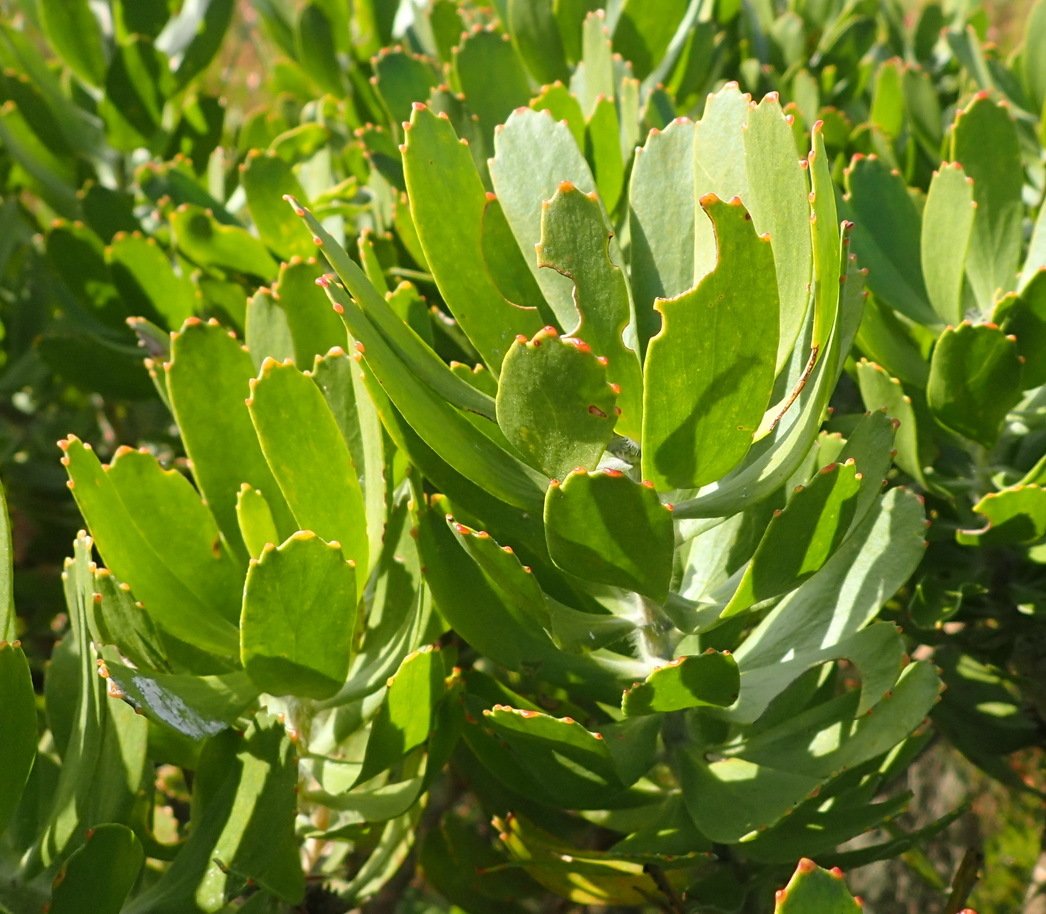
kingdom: Plantae
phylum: Tracheophyta
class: Magnoliopsida
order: Proteales
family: Proteaceae
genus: Leucospermum
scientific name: Leucospermum praecox
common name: Mossel bay pincushion
